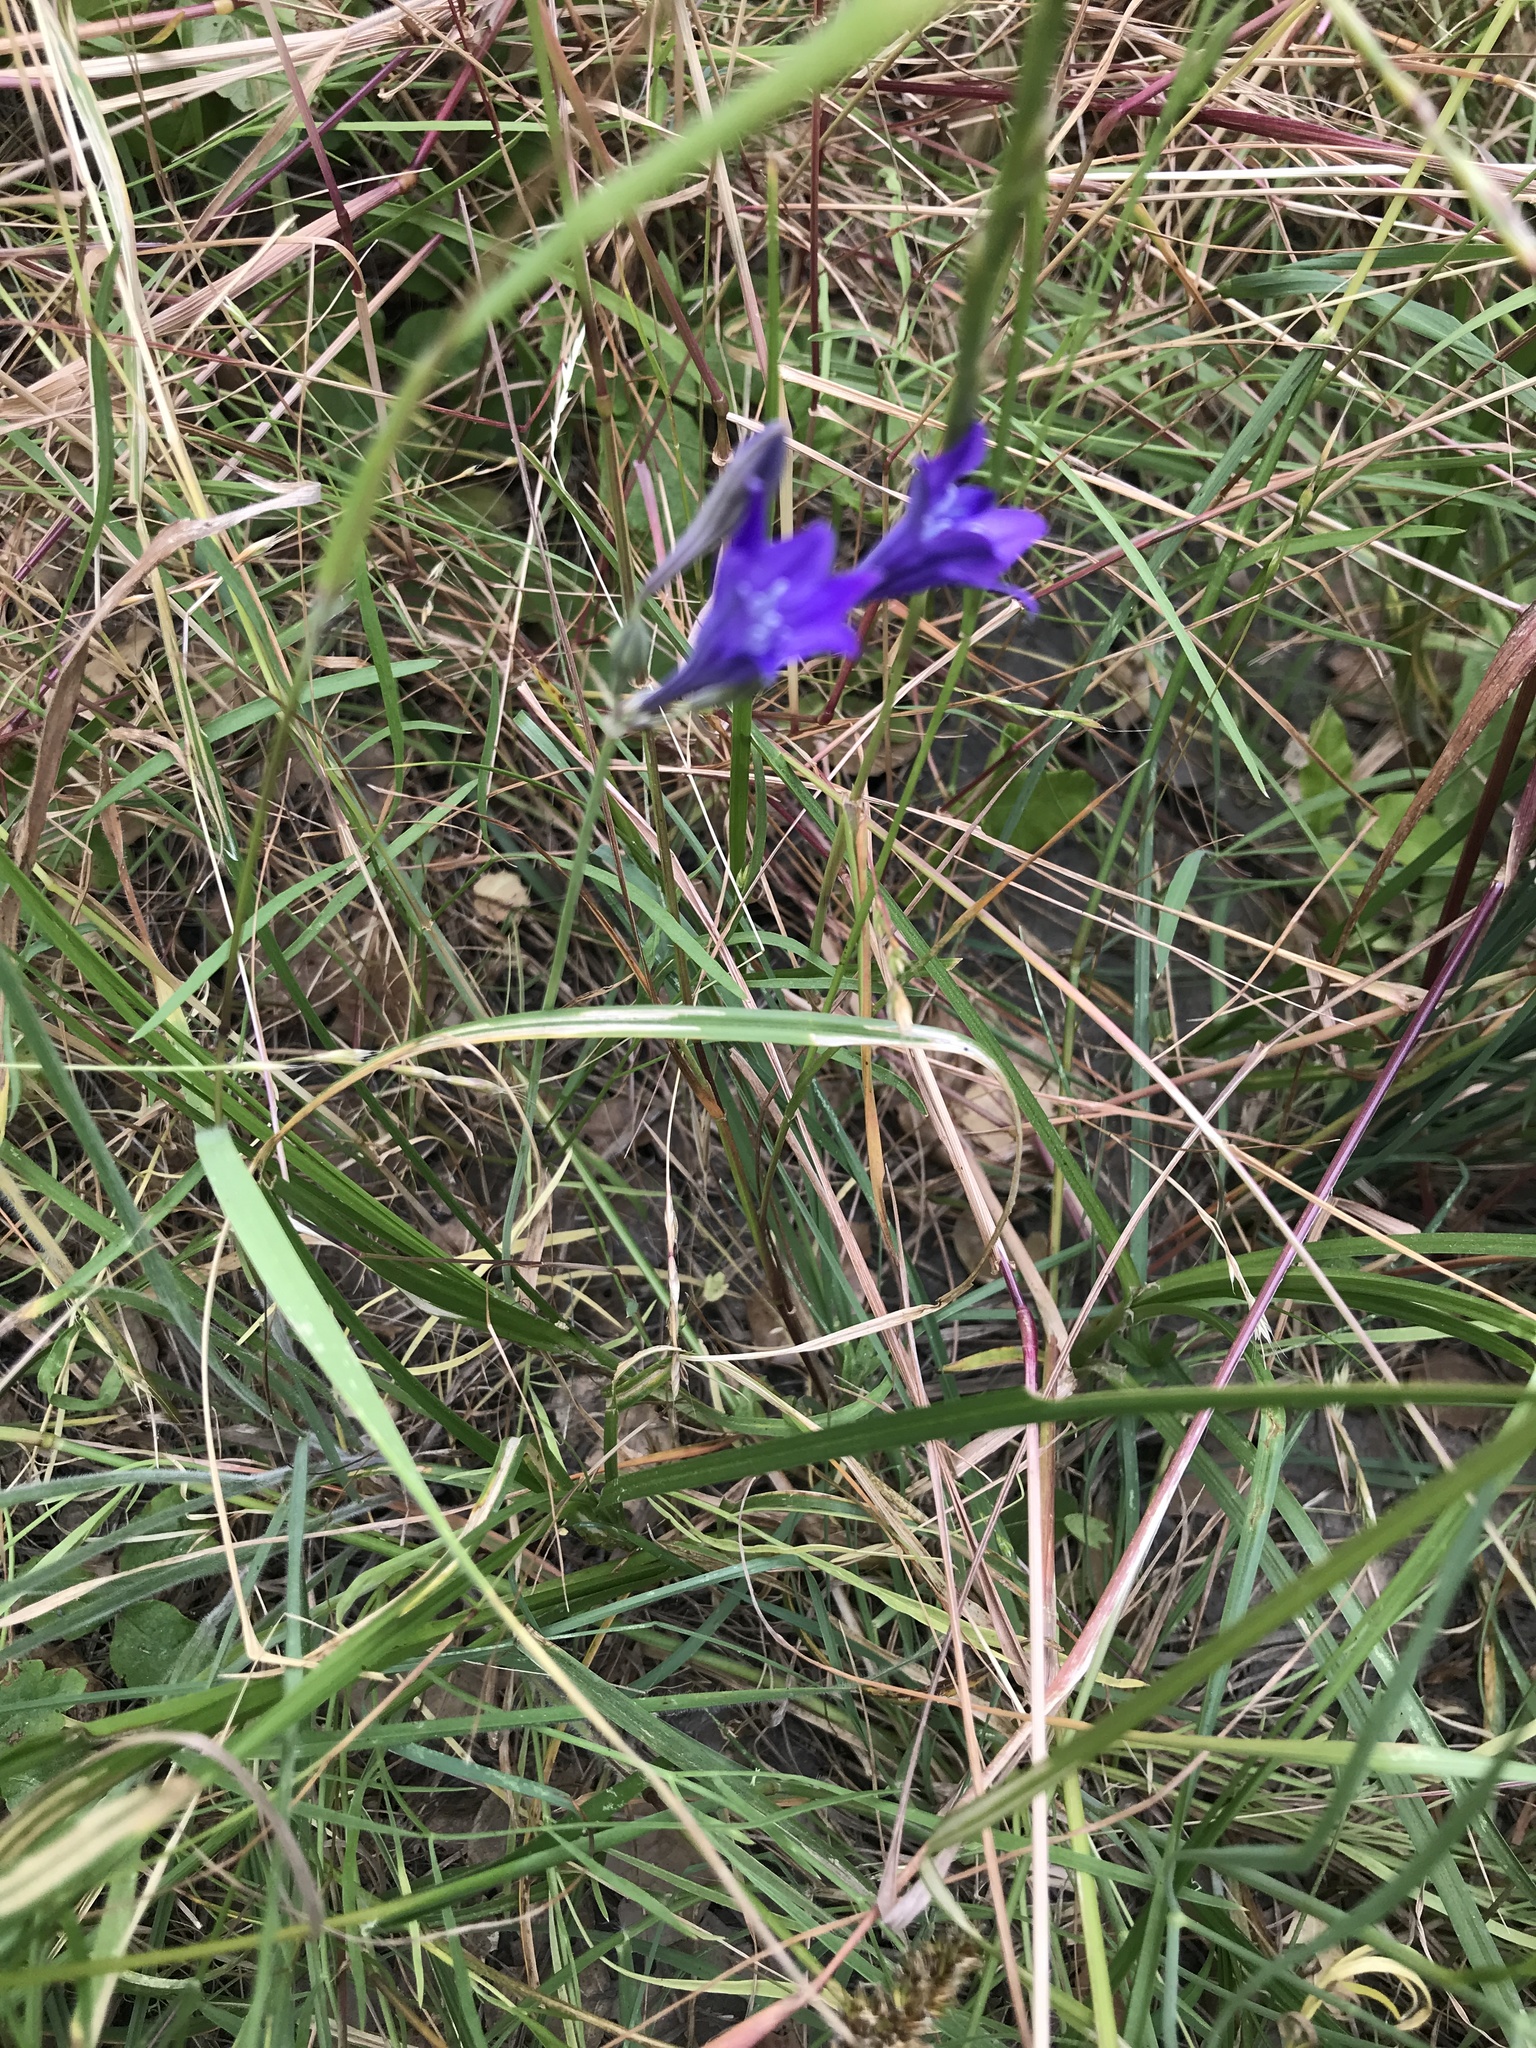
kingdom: Plantae
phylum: Tracheophyta
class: Liliopsida
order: Asparagales
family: Asparagaceae
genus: Triteleia
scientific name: Triteleia laxa
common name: Triplet-lily
